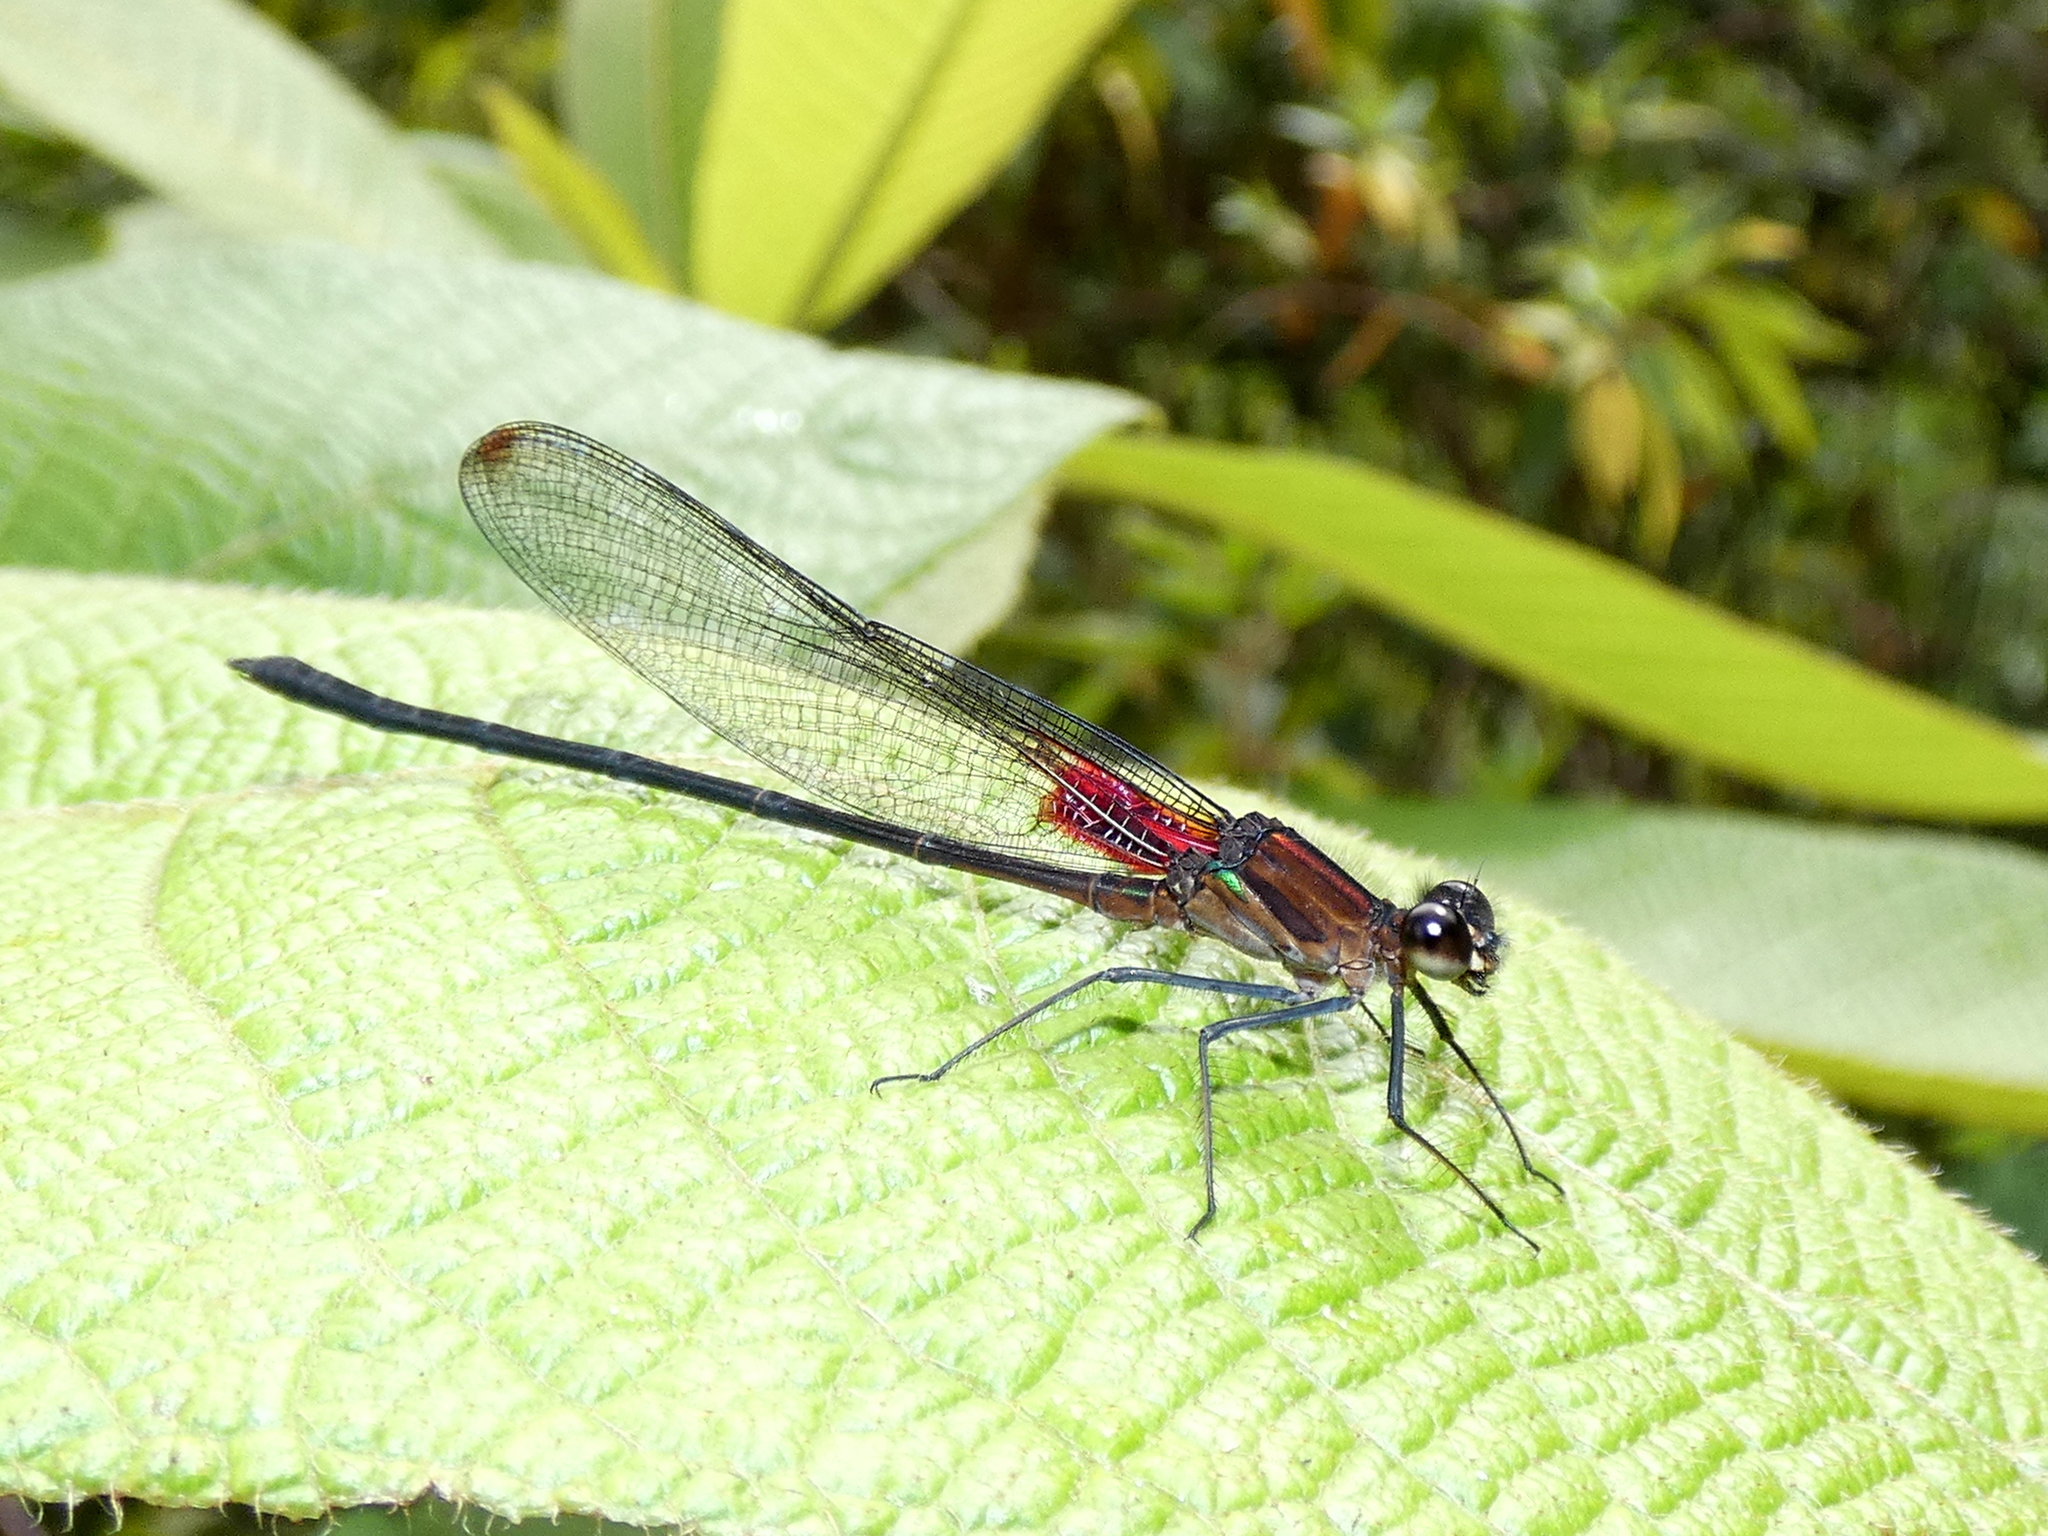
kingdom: Animalia
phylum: Arthropoda
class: Insecta
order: Odonata
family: Calopterygidae
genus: Hetaerina
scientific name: Hetaerina cruentata
